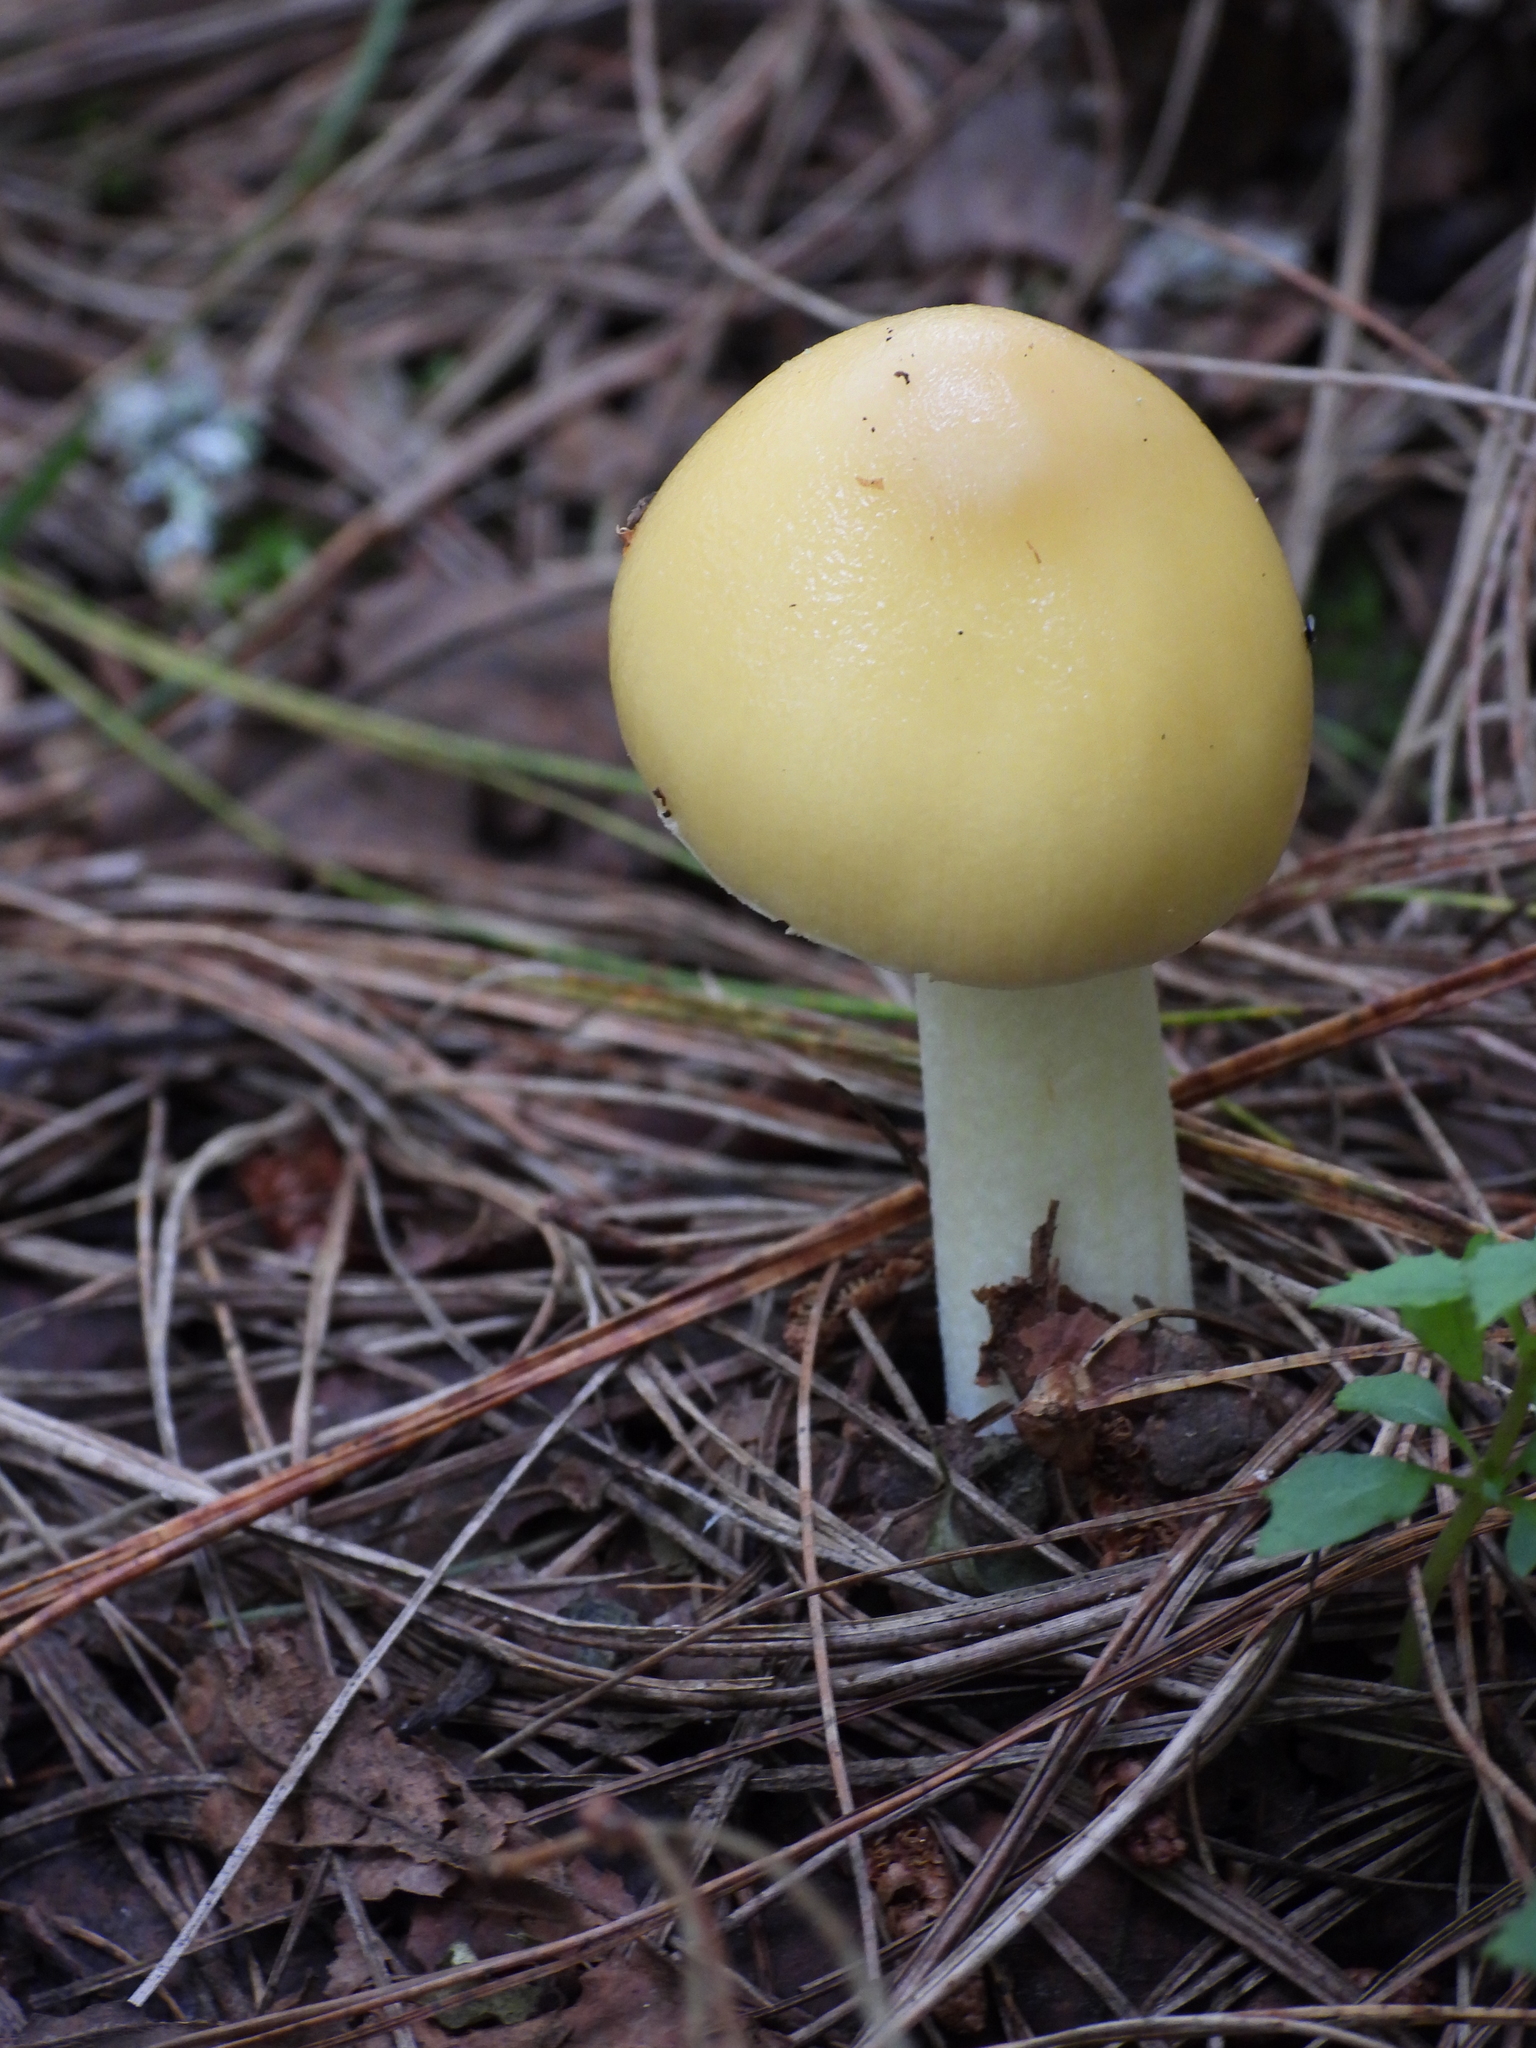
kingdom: Fungi
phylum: Basidiomycota
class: Agaricomycetes
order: Agaricales
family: Amanitaceae
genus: Amanita
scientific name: Amanita xylinivolva
